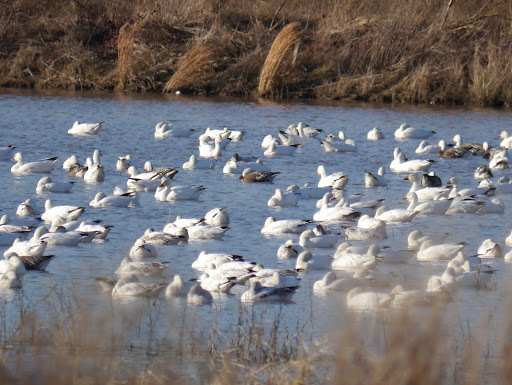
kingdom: Animalia
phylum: Chordata
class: Aves
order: Anseriformes
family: Anatidae
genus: Anser
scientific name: Anser caerulescens
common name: Snow goose
